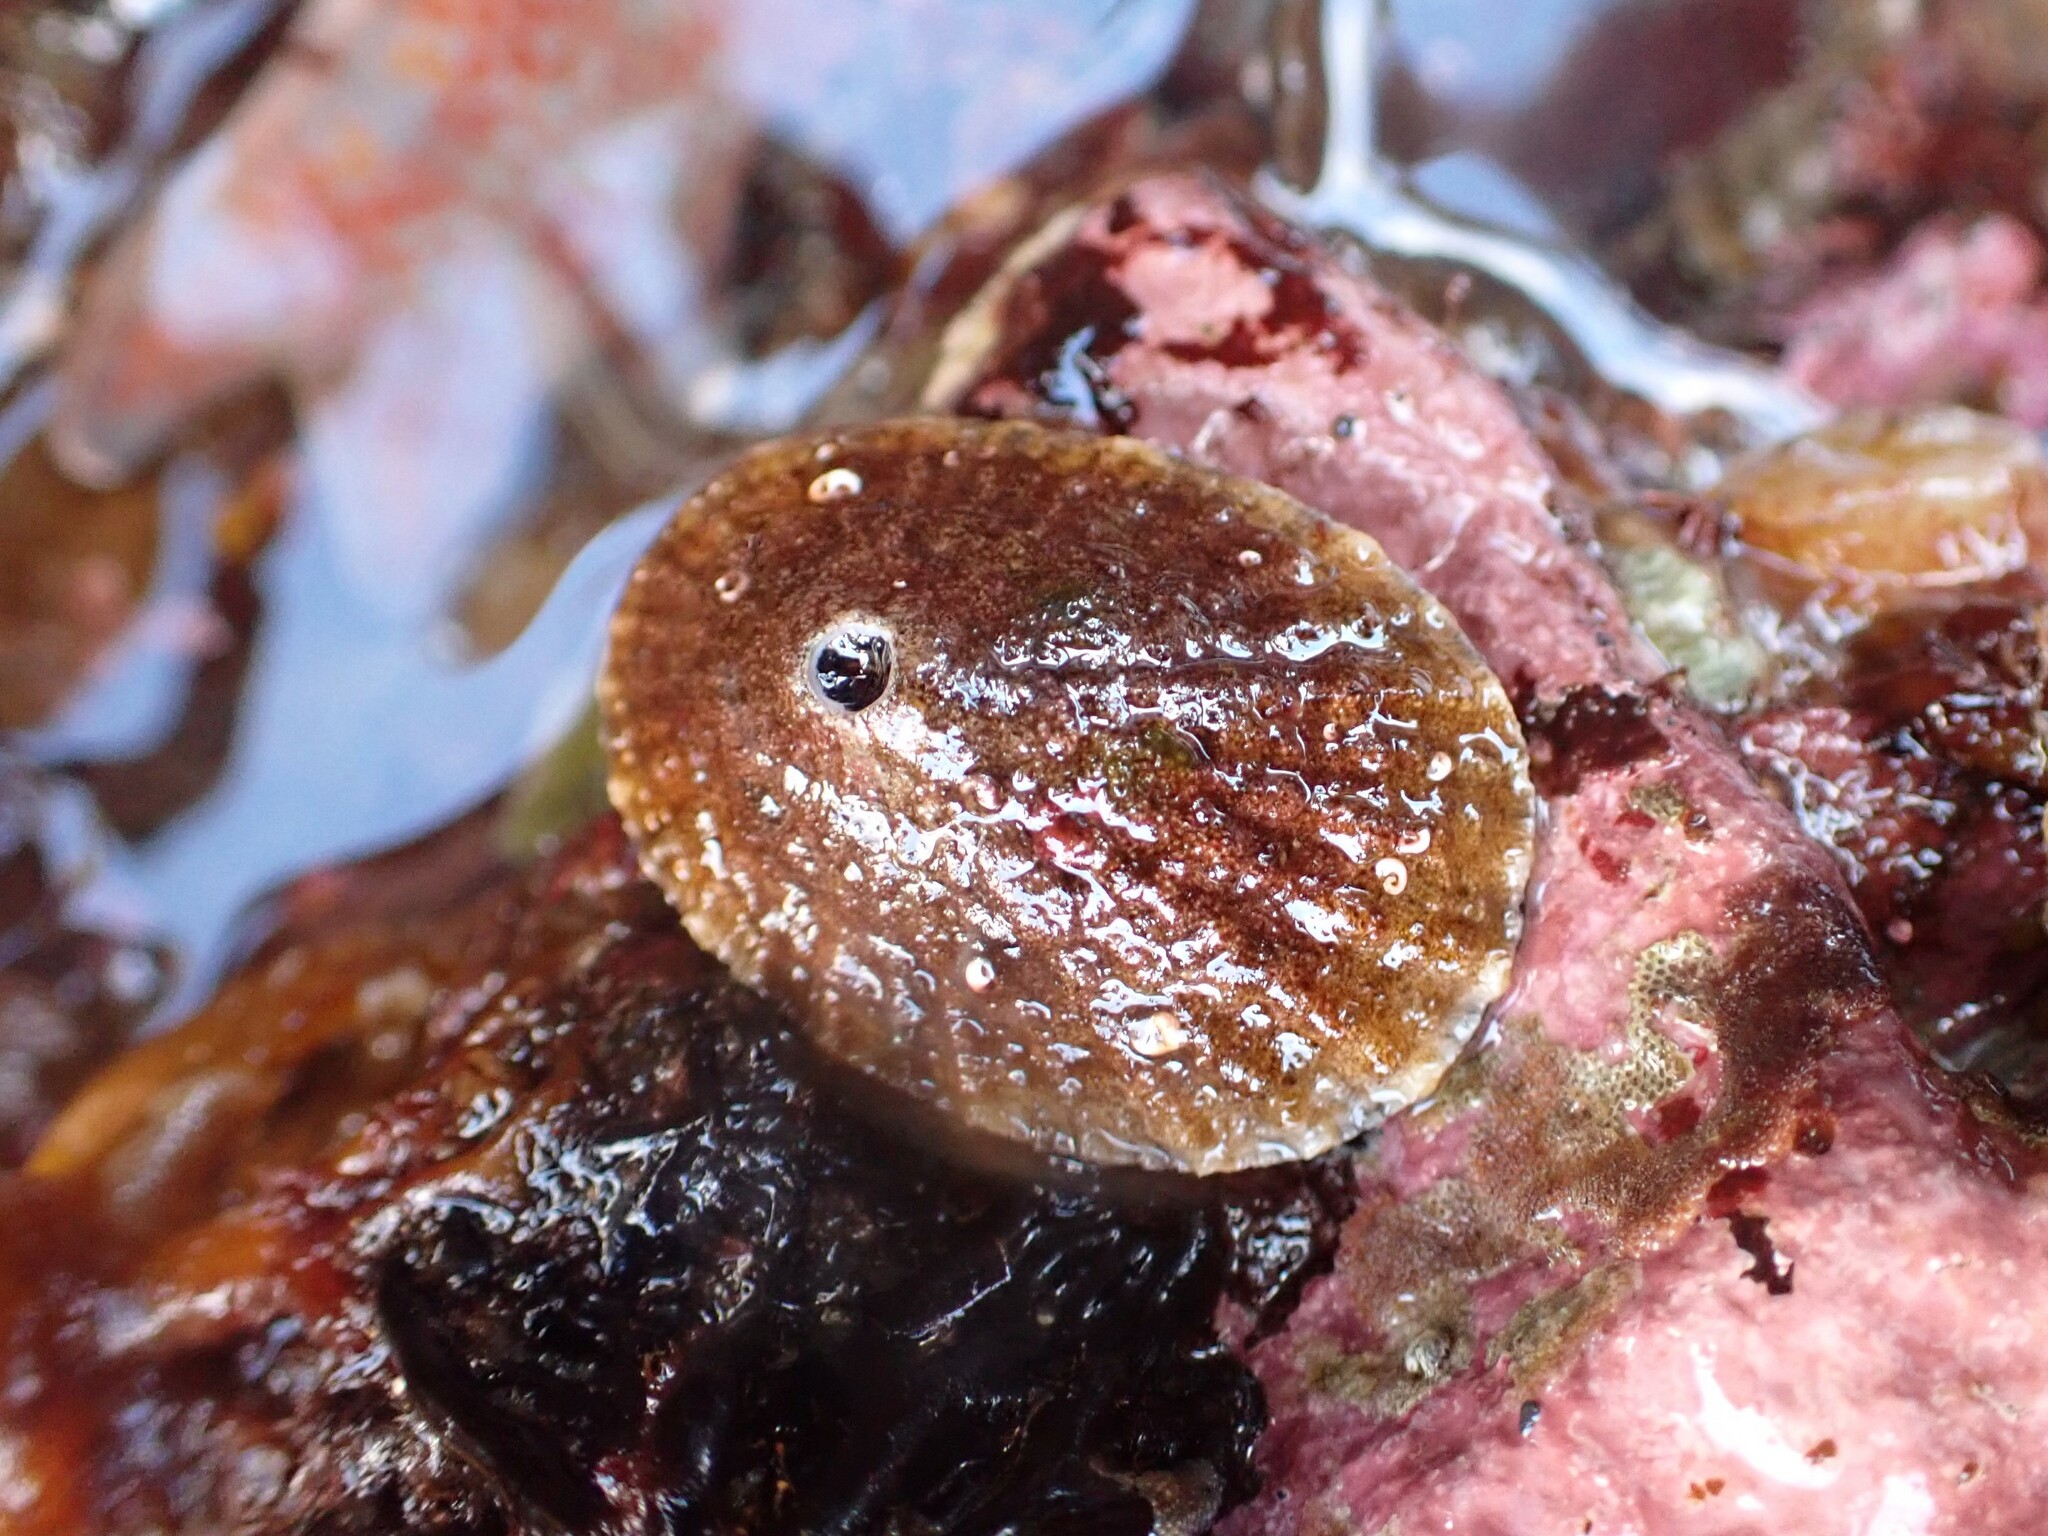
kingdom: Animalia
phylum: Mollusca
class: Gastropoda
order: Lepetellida
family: Fissurellidae
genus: Diodora
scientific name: Diodora aspera
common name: Rough keyhole limpet
